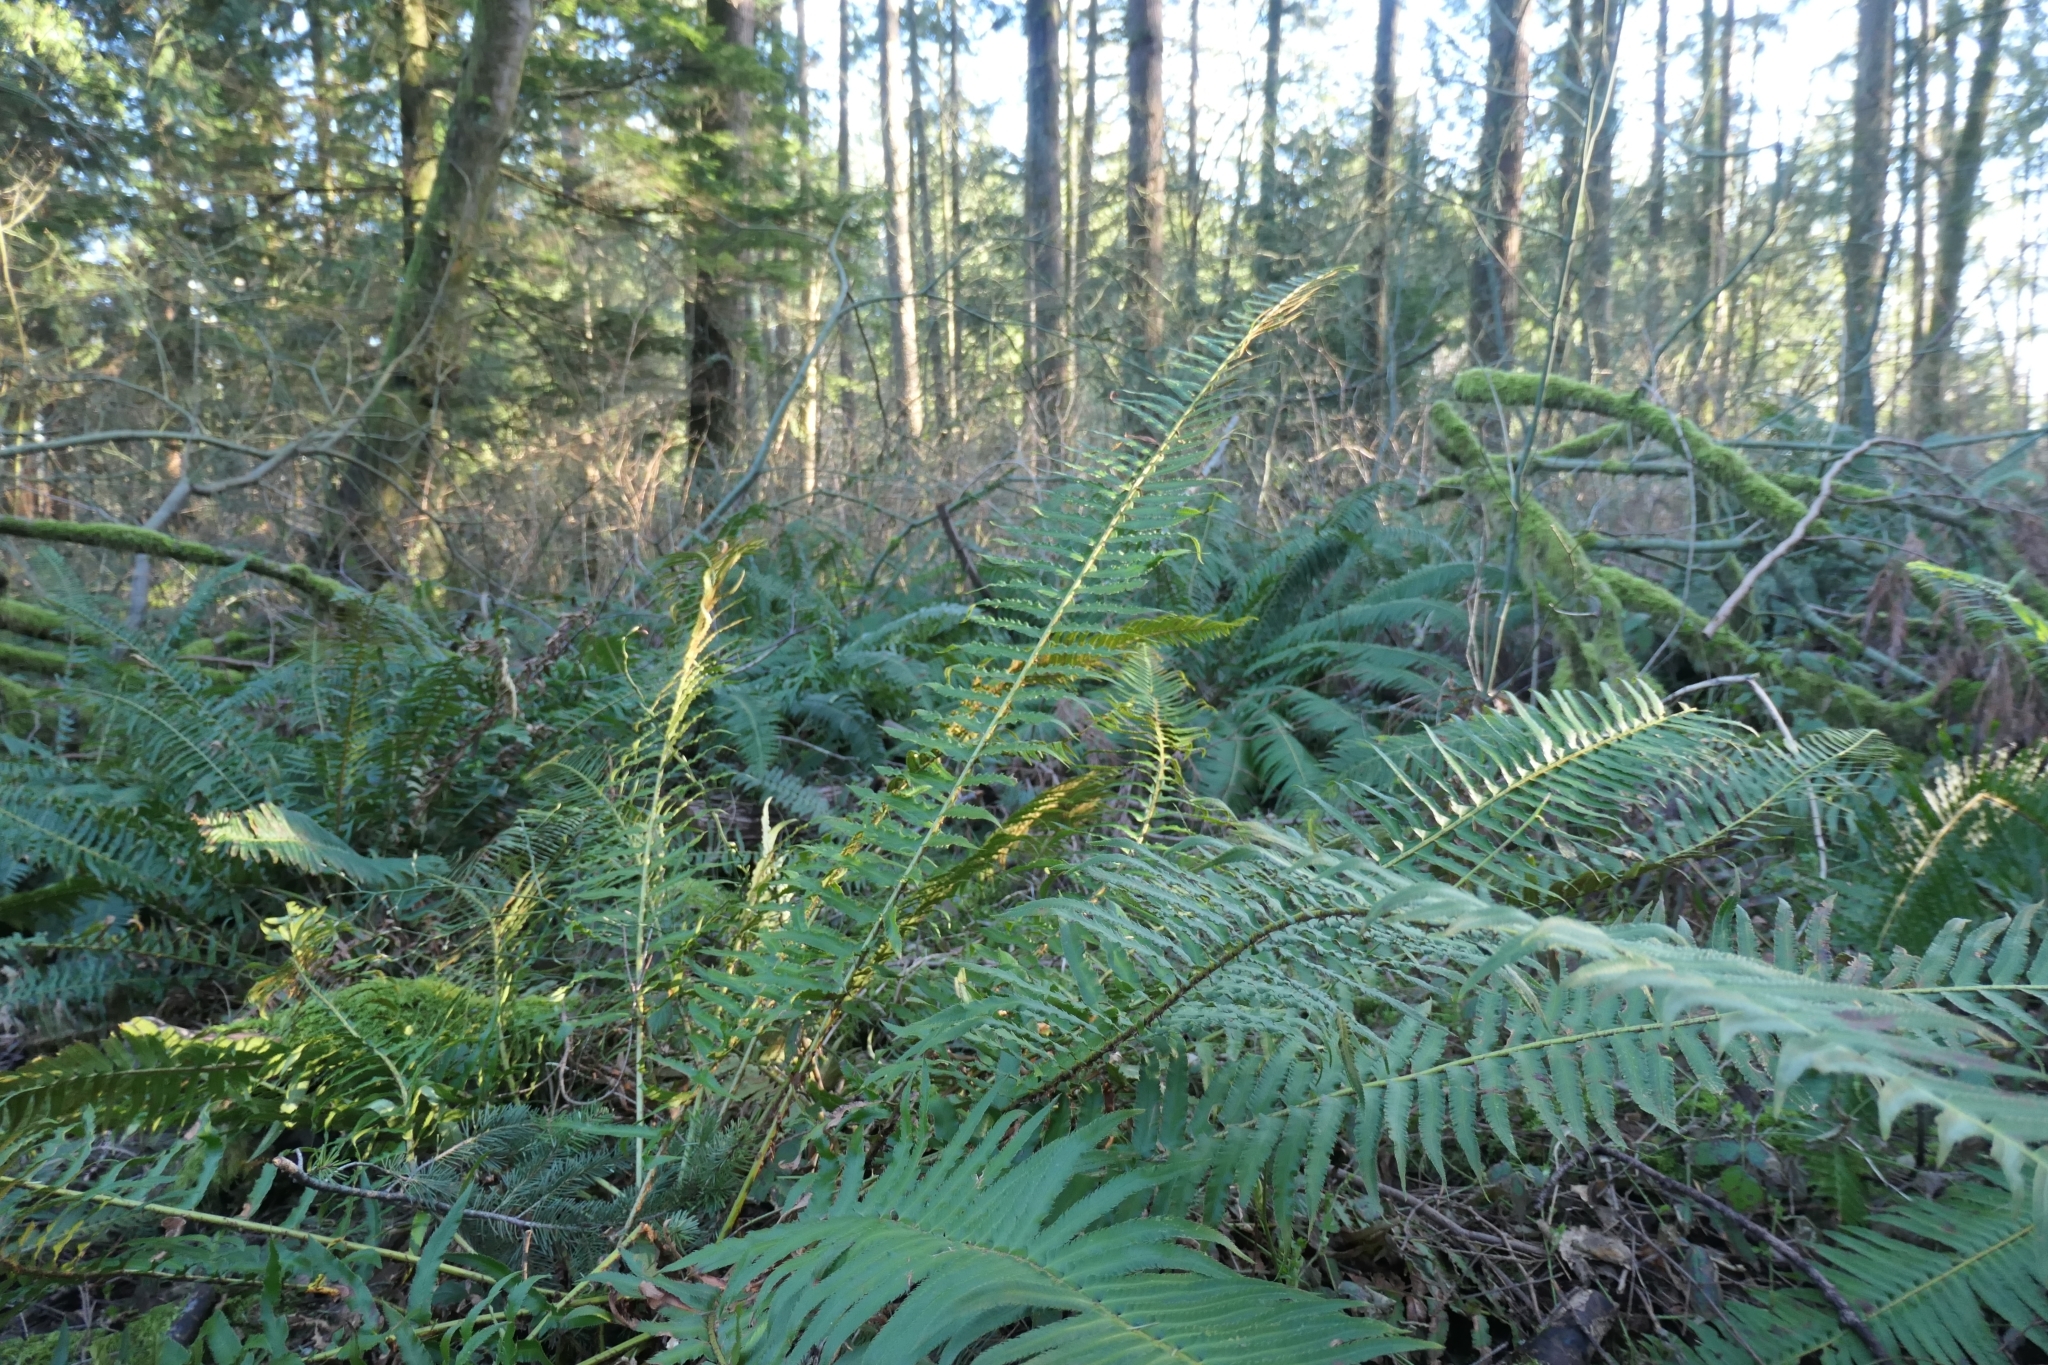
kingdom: Plantae
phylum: Tracheophyta
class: Polypodiopsida
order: Polypodiales
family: Dryopteridaceae
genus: Polystichum
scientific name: Polystichum munitum
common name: Western sword-fern
